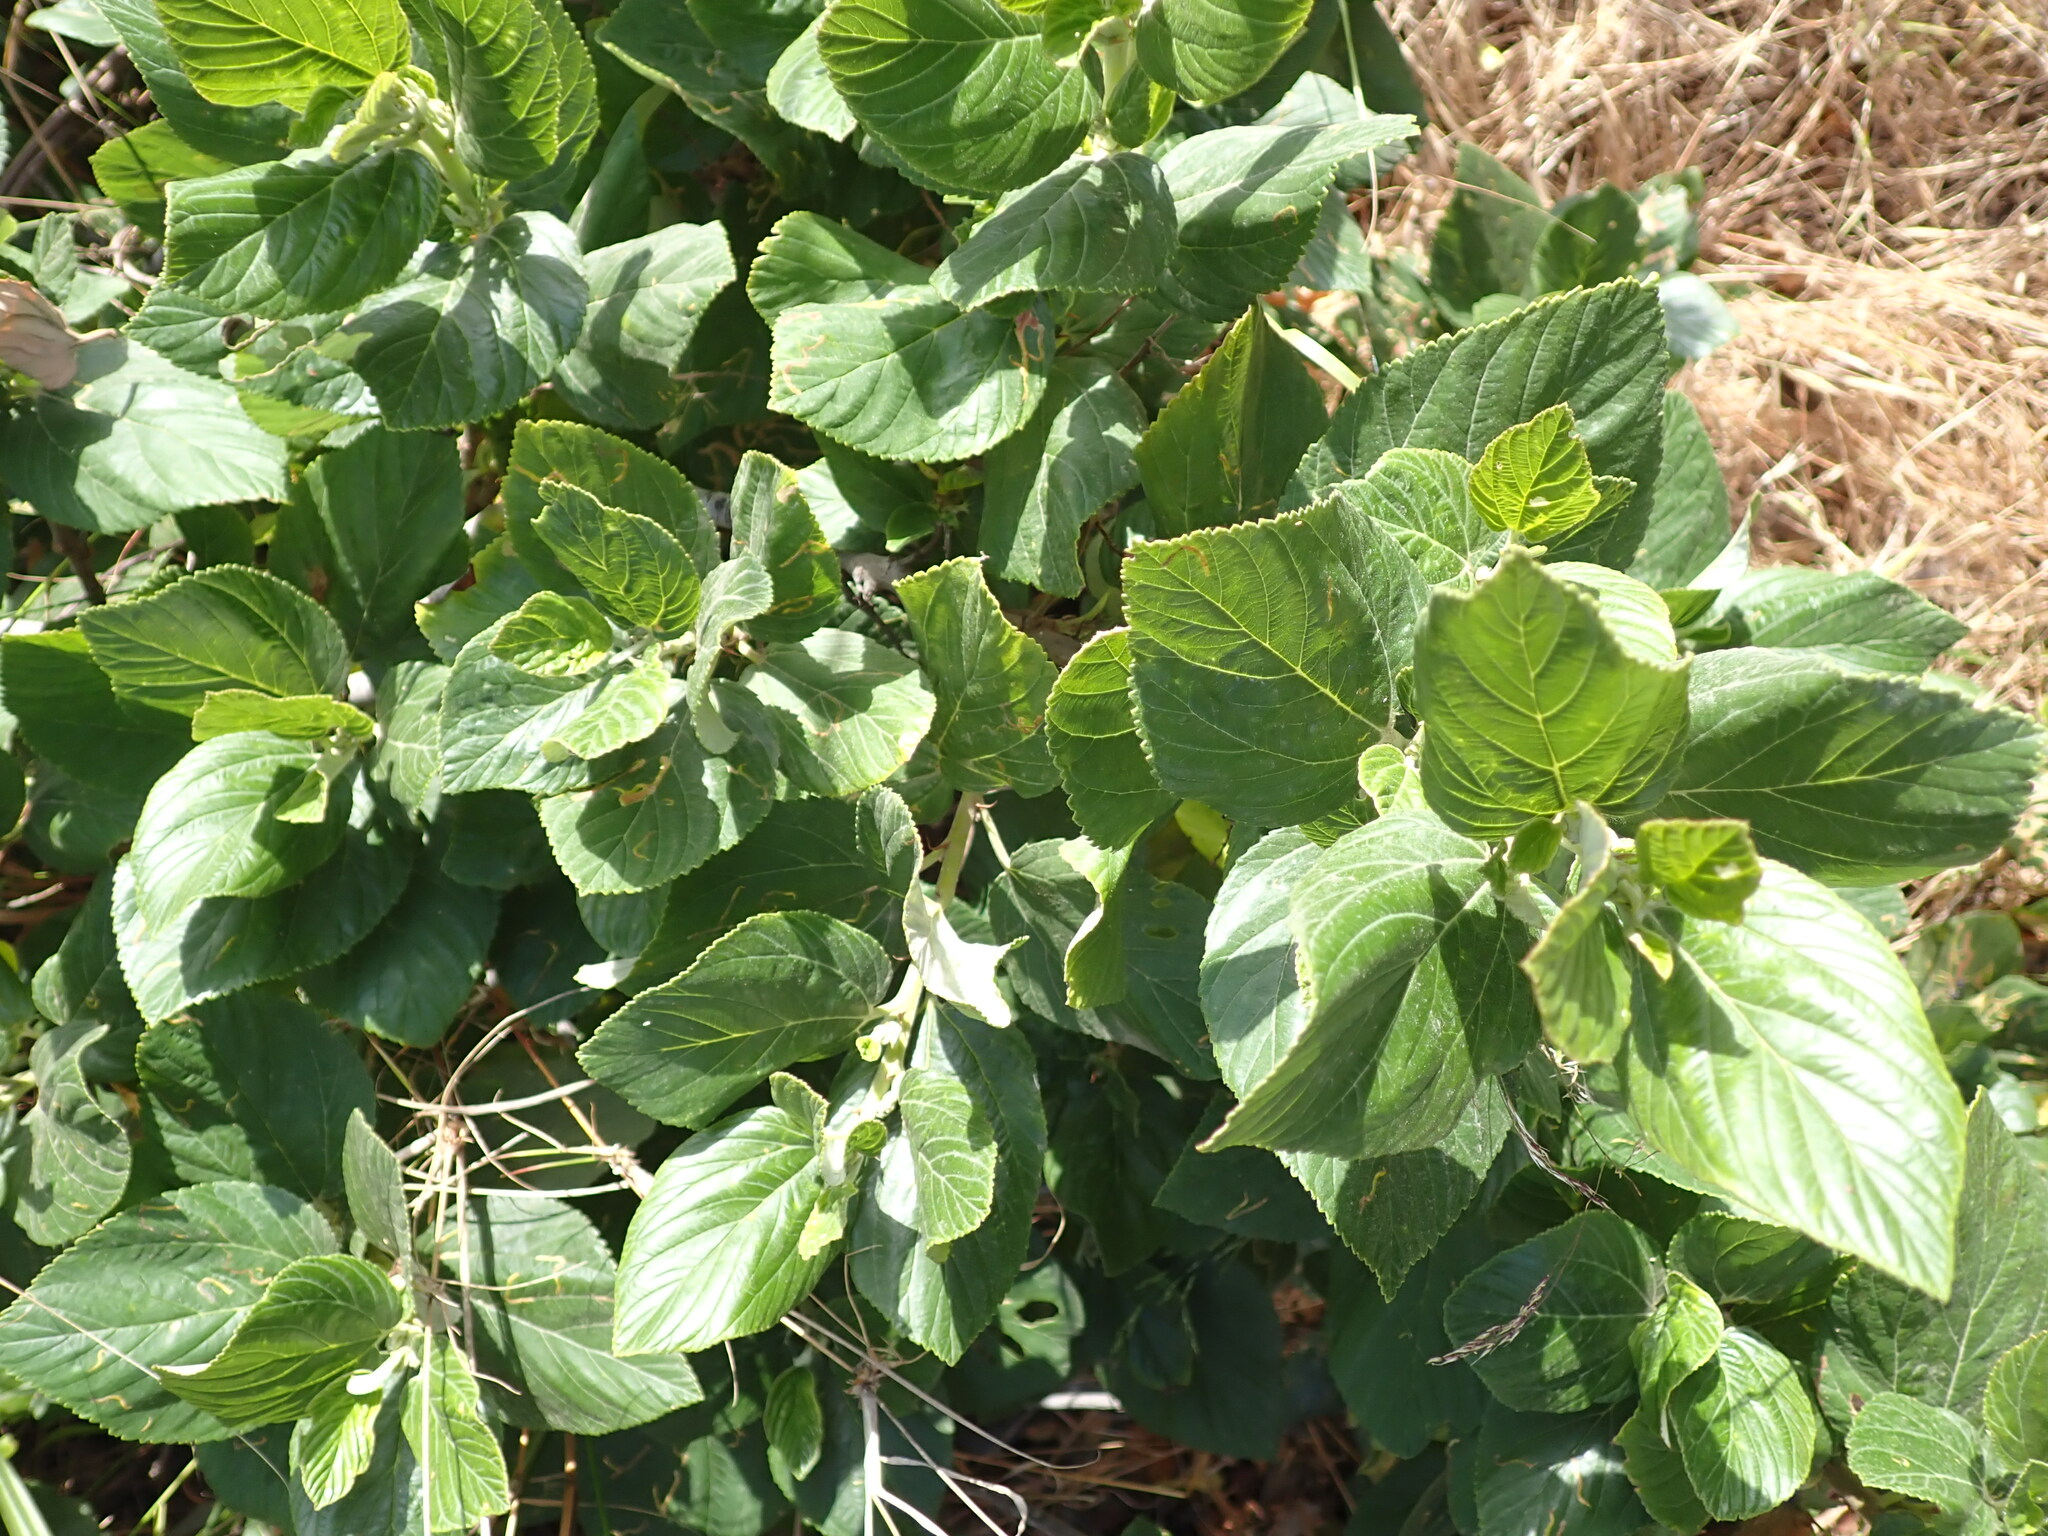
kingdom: Plantae
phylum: Tracheophyta
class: Magnoliopsida
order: Rosales
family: Rhamnaceae
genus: Ceanothus
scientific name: Ceanothus arboreus
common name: Catalina mountain-lilac
